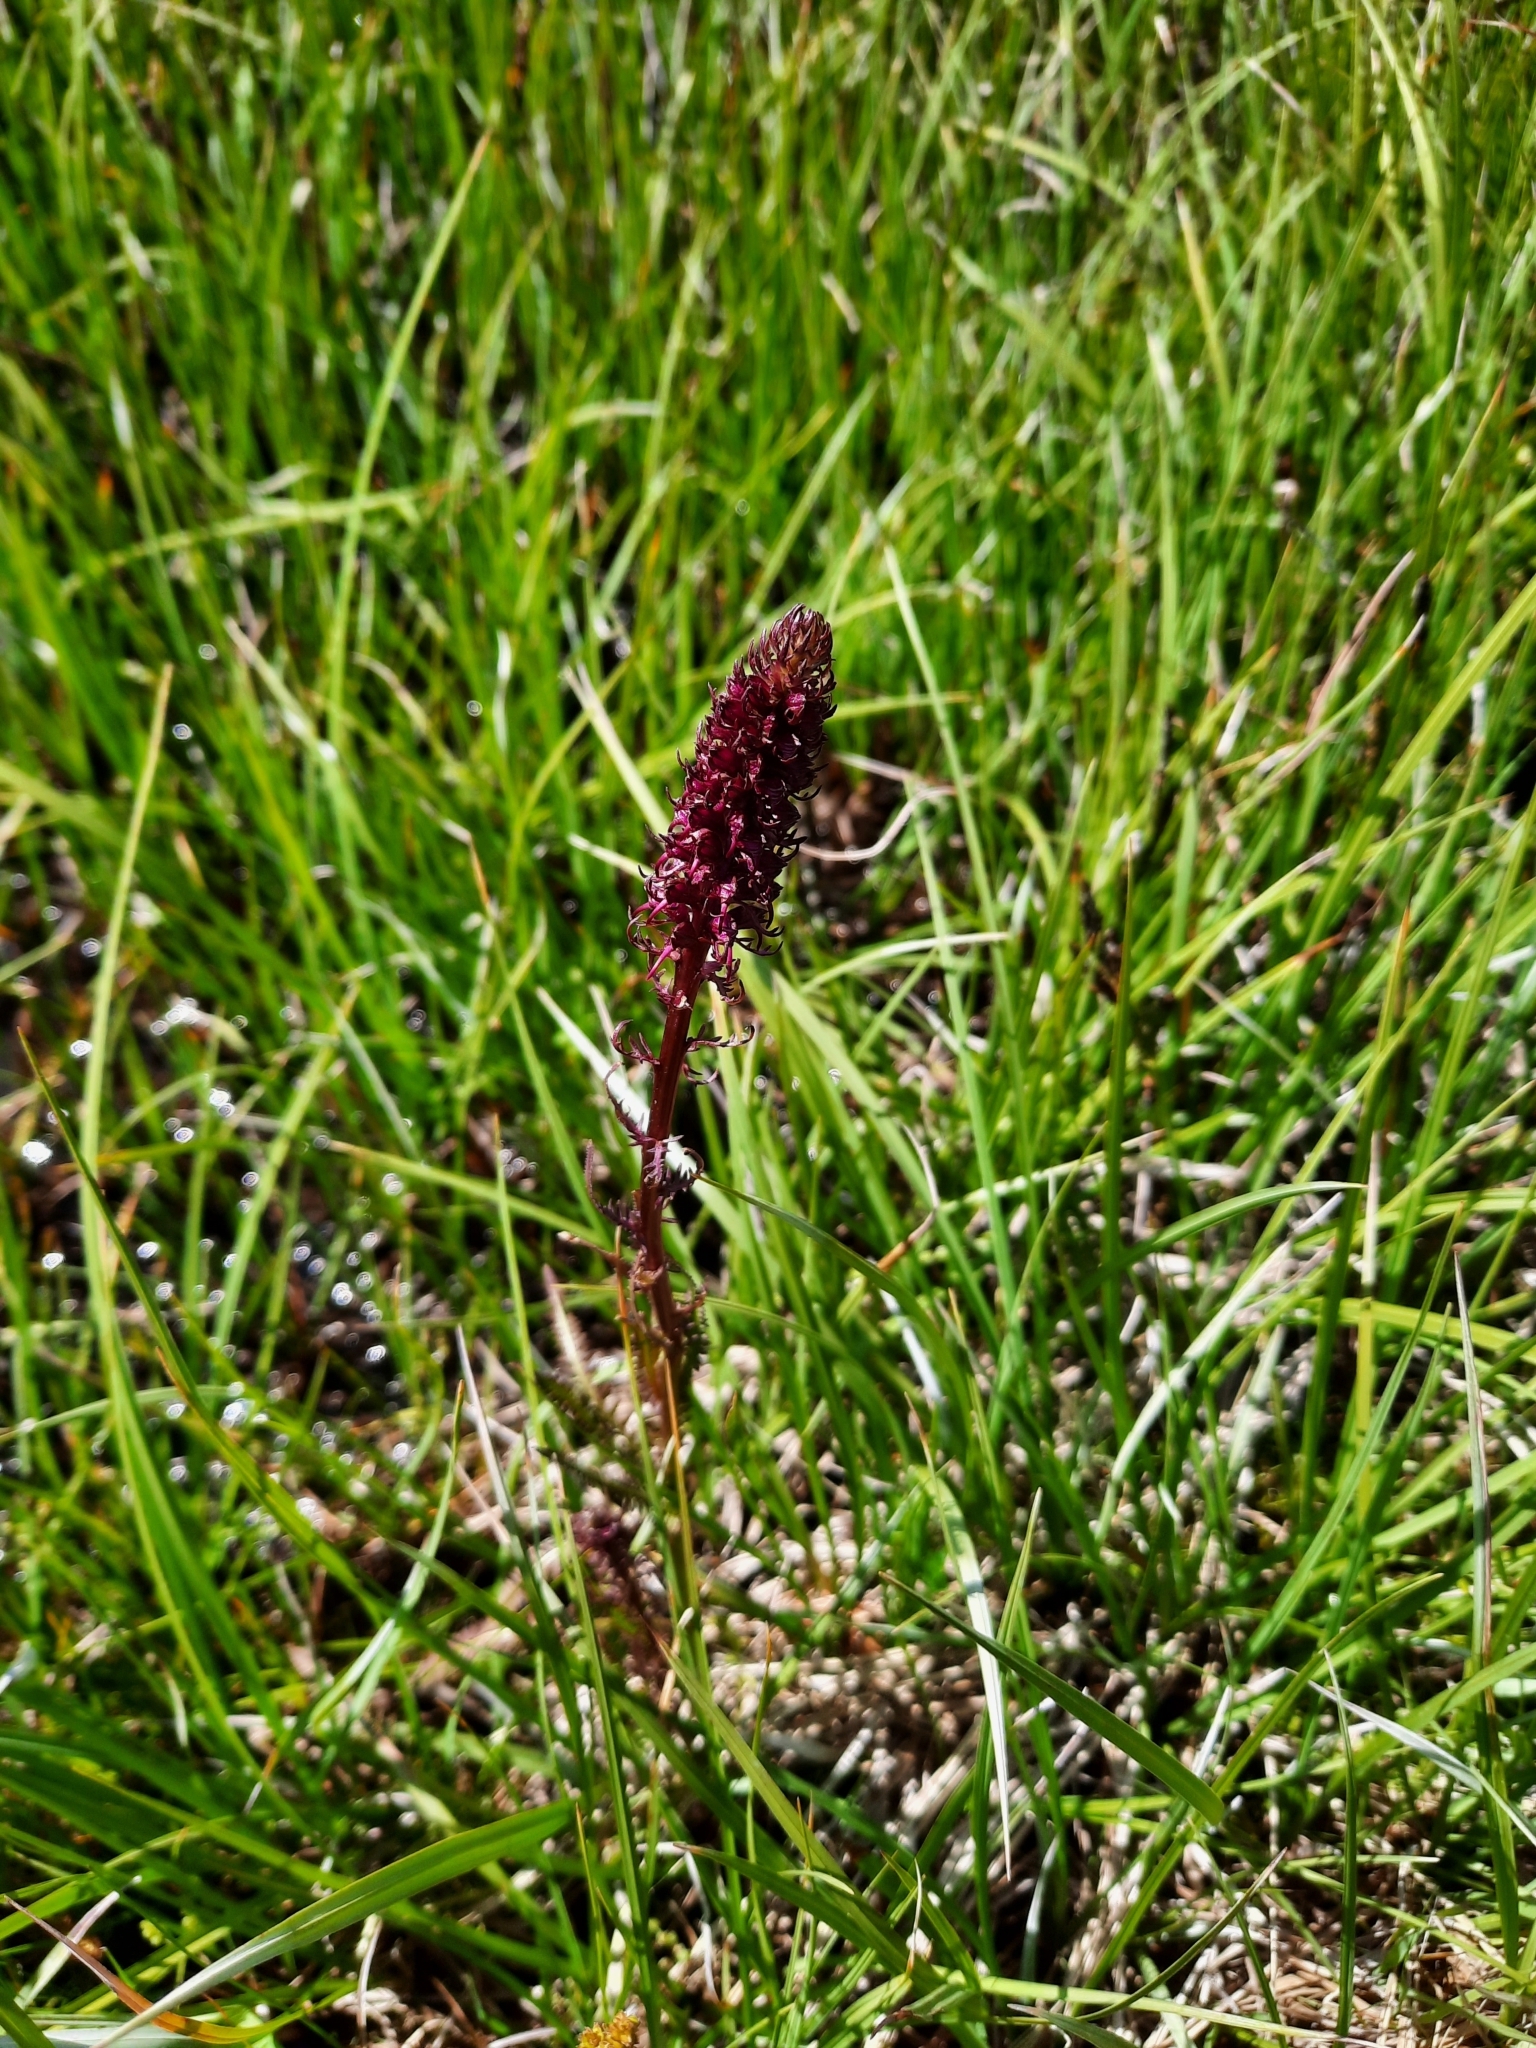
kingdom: Plantae
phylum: Tracheophyta
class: Magnoliopsida
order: Lamiales
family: Orobanchaceae
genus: Pedicularis
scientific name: Pedicularis groenlandica
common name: Elephant's-head
